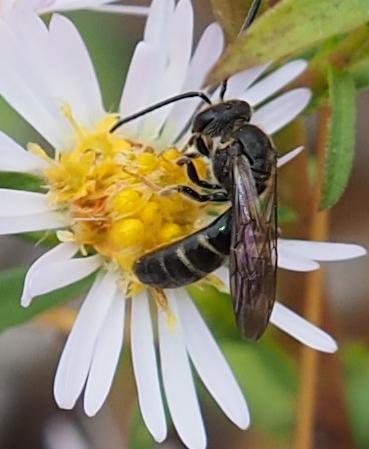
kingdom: Animalia
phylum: Arthropoda
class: Insecta
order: Hymenoptera
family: Halictidae
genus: Lasioglossum
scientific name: Lasioglossum fuscipenne
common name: Brown-winged sweat bee
